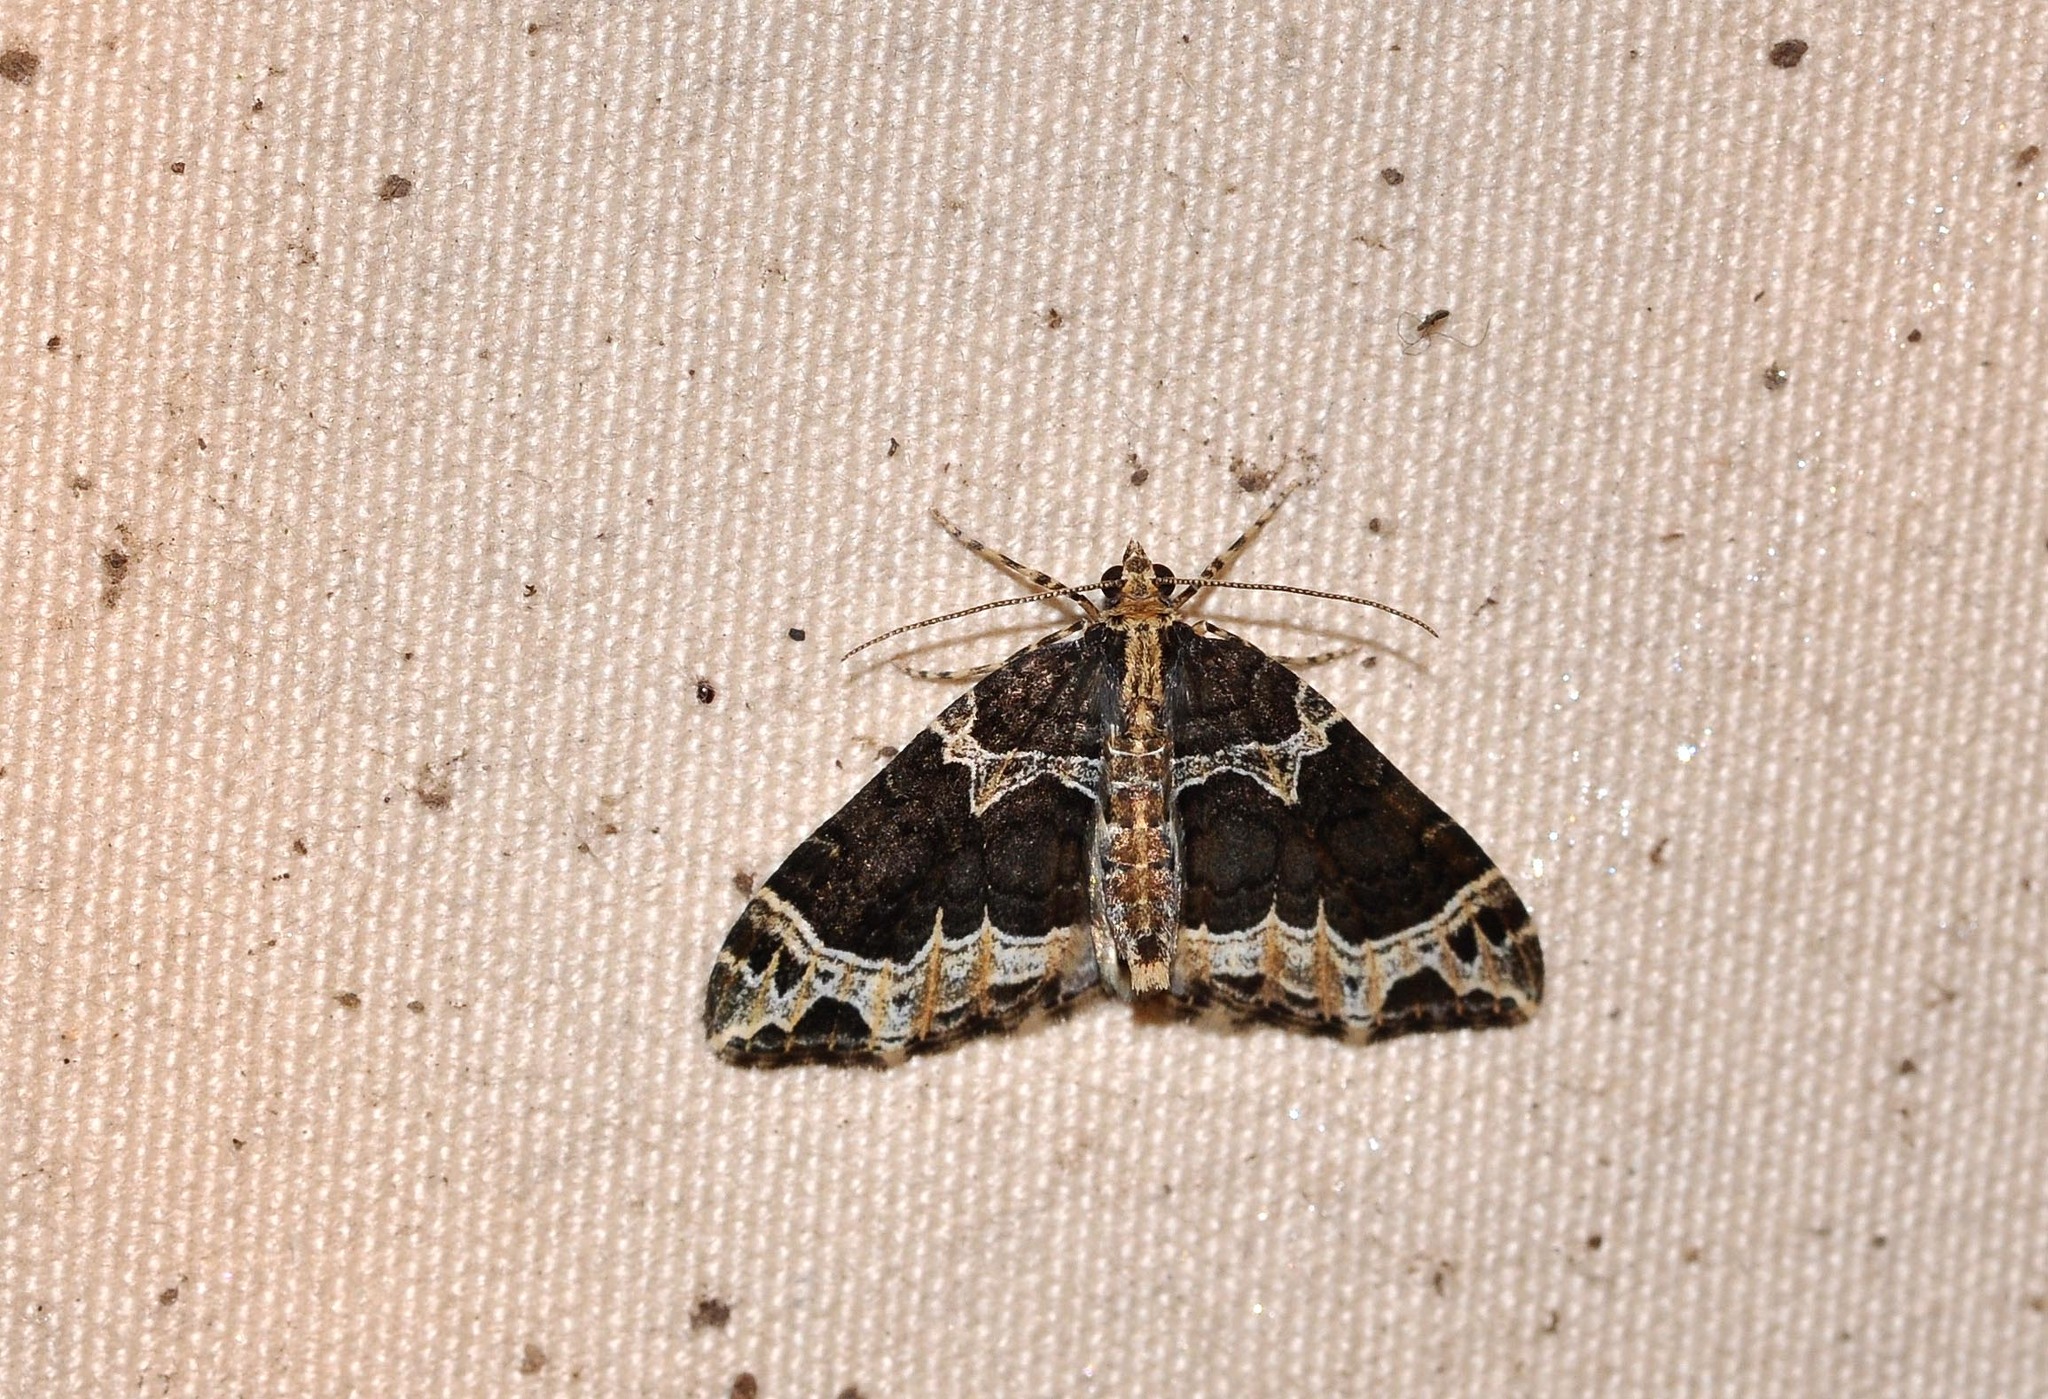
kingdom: Animalia
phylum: Arthropoda
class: Insecta
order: Lepidoptera
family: Geometridae
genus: Ecliptopera
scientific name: Ecliptopera silaceata
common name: Small phoenix
